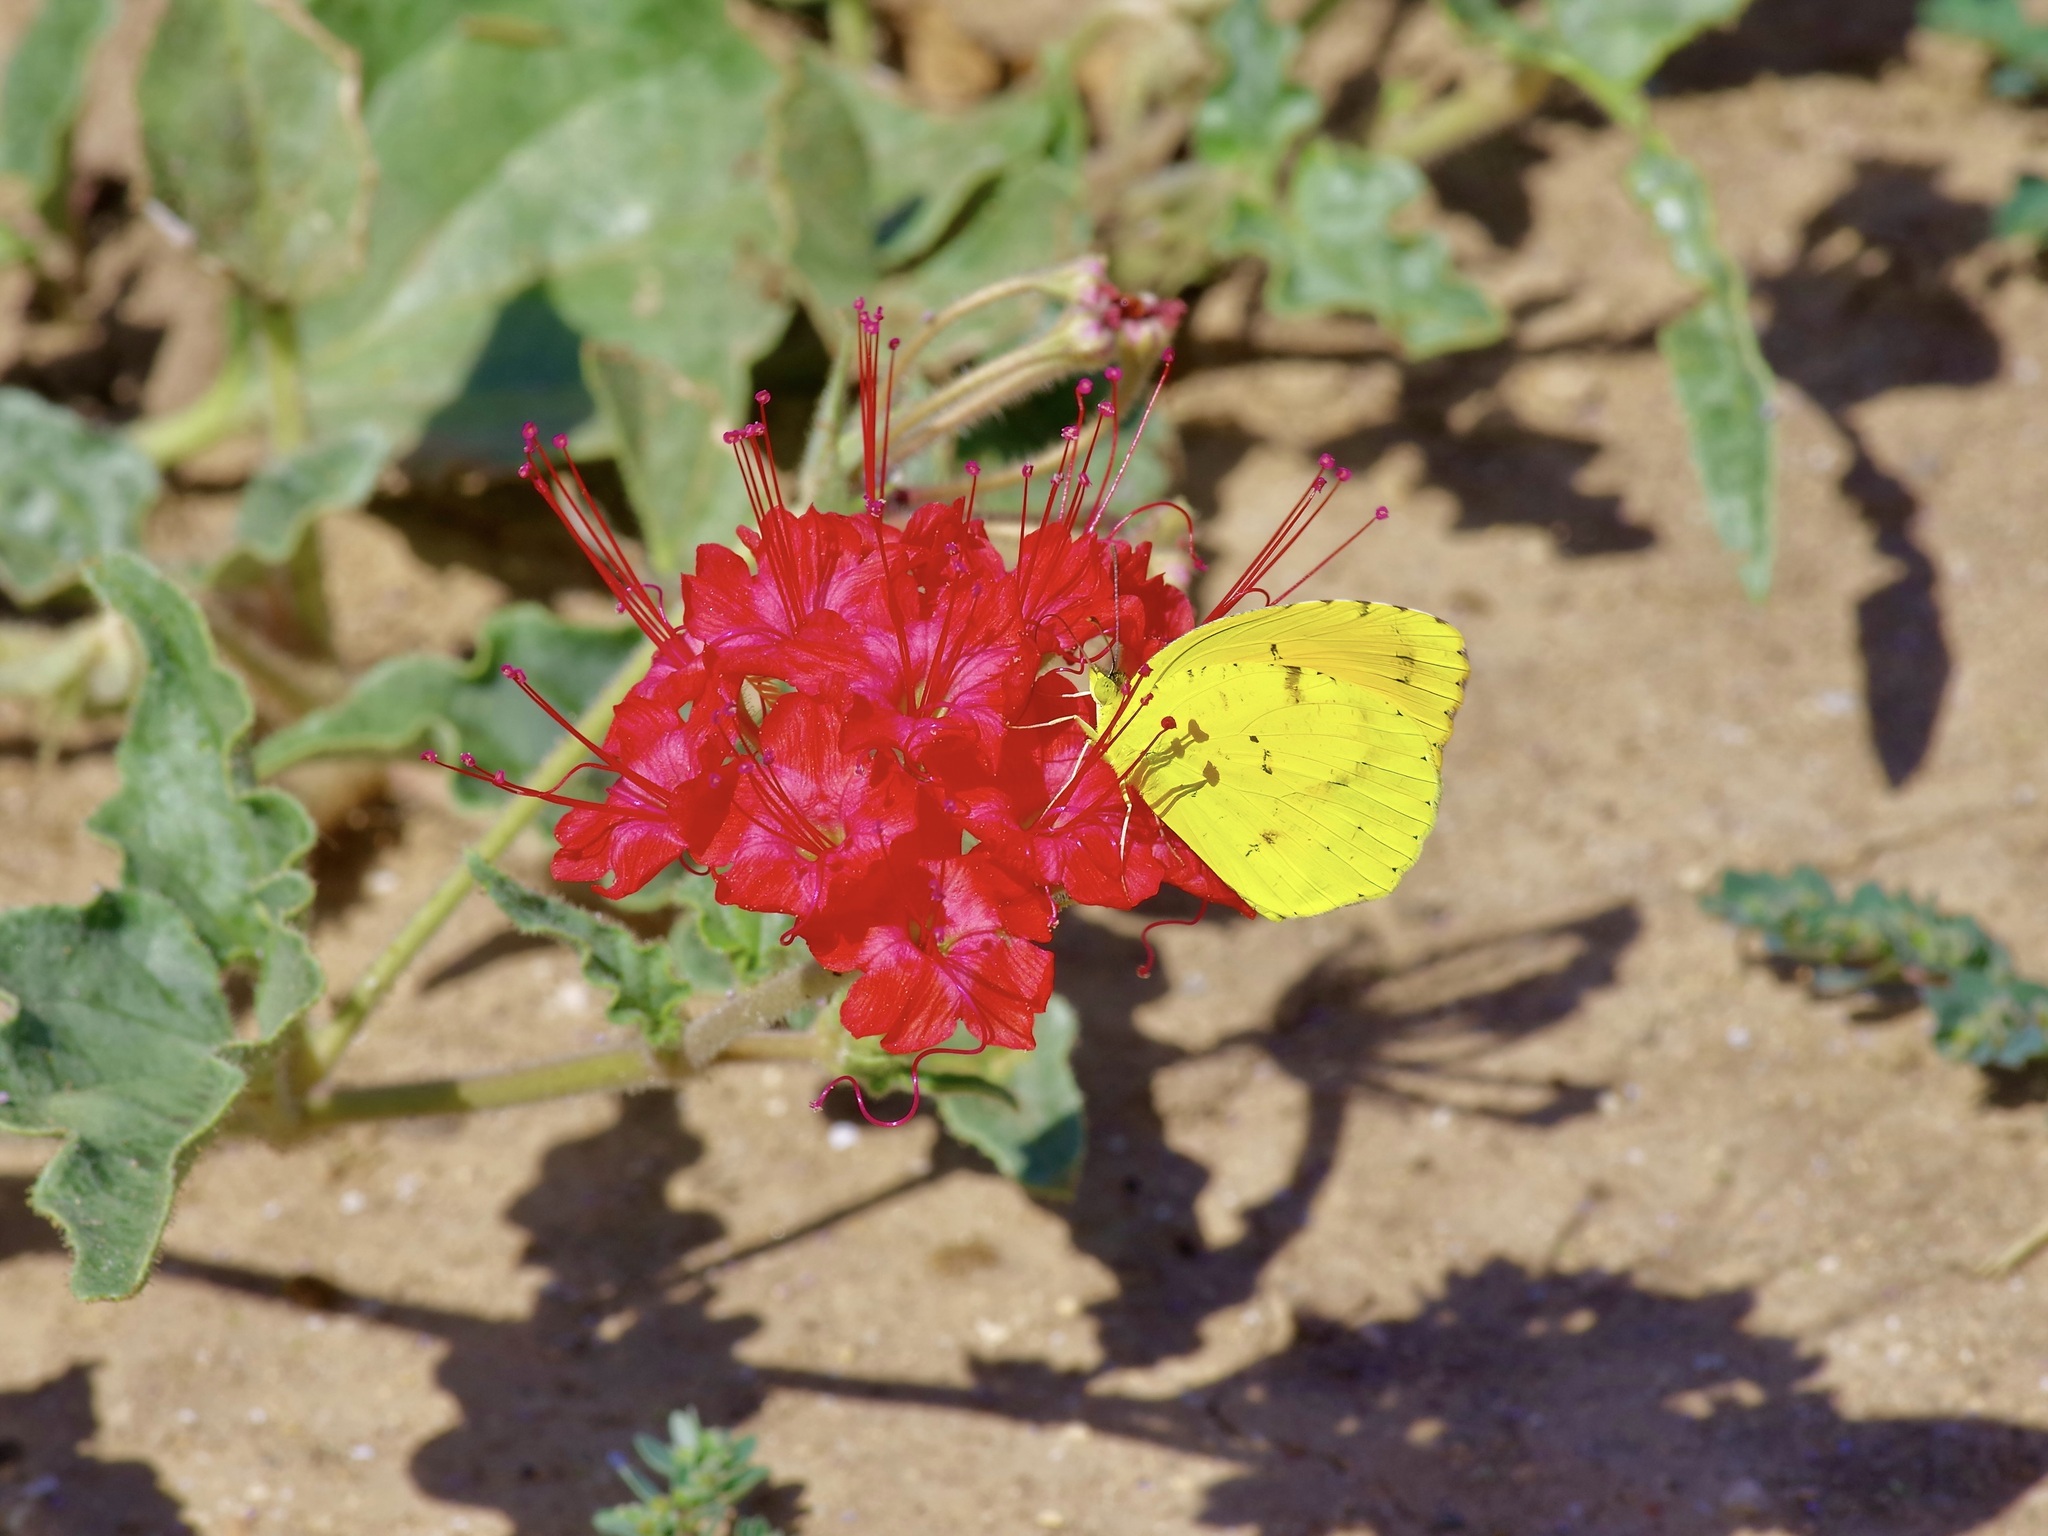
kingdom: Animalia
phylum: Arthropoda
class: Insecta
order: Lepidoptera
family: Pieridae
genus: Abaeis
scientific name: Abaeis nicippe
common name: Sleepy orange
